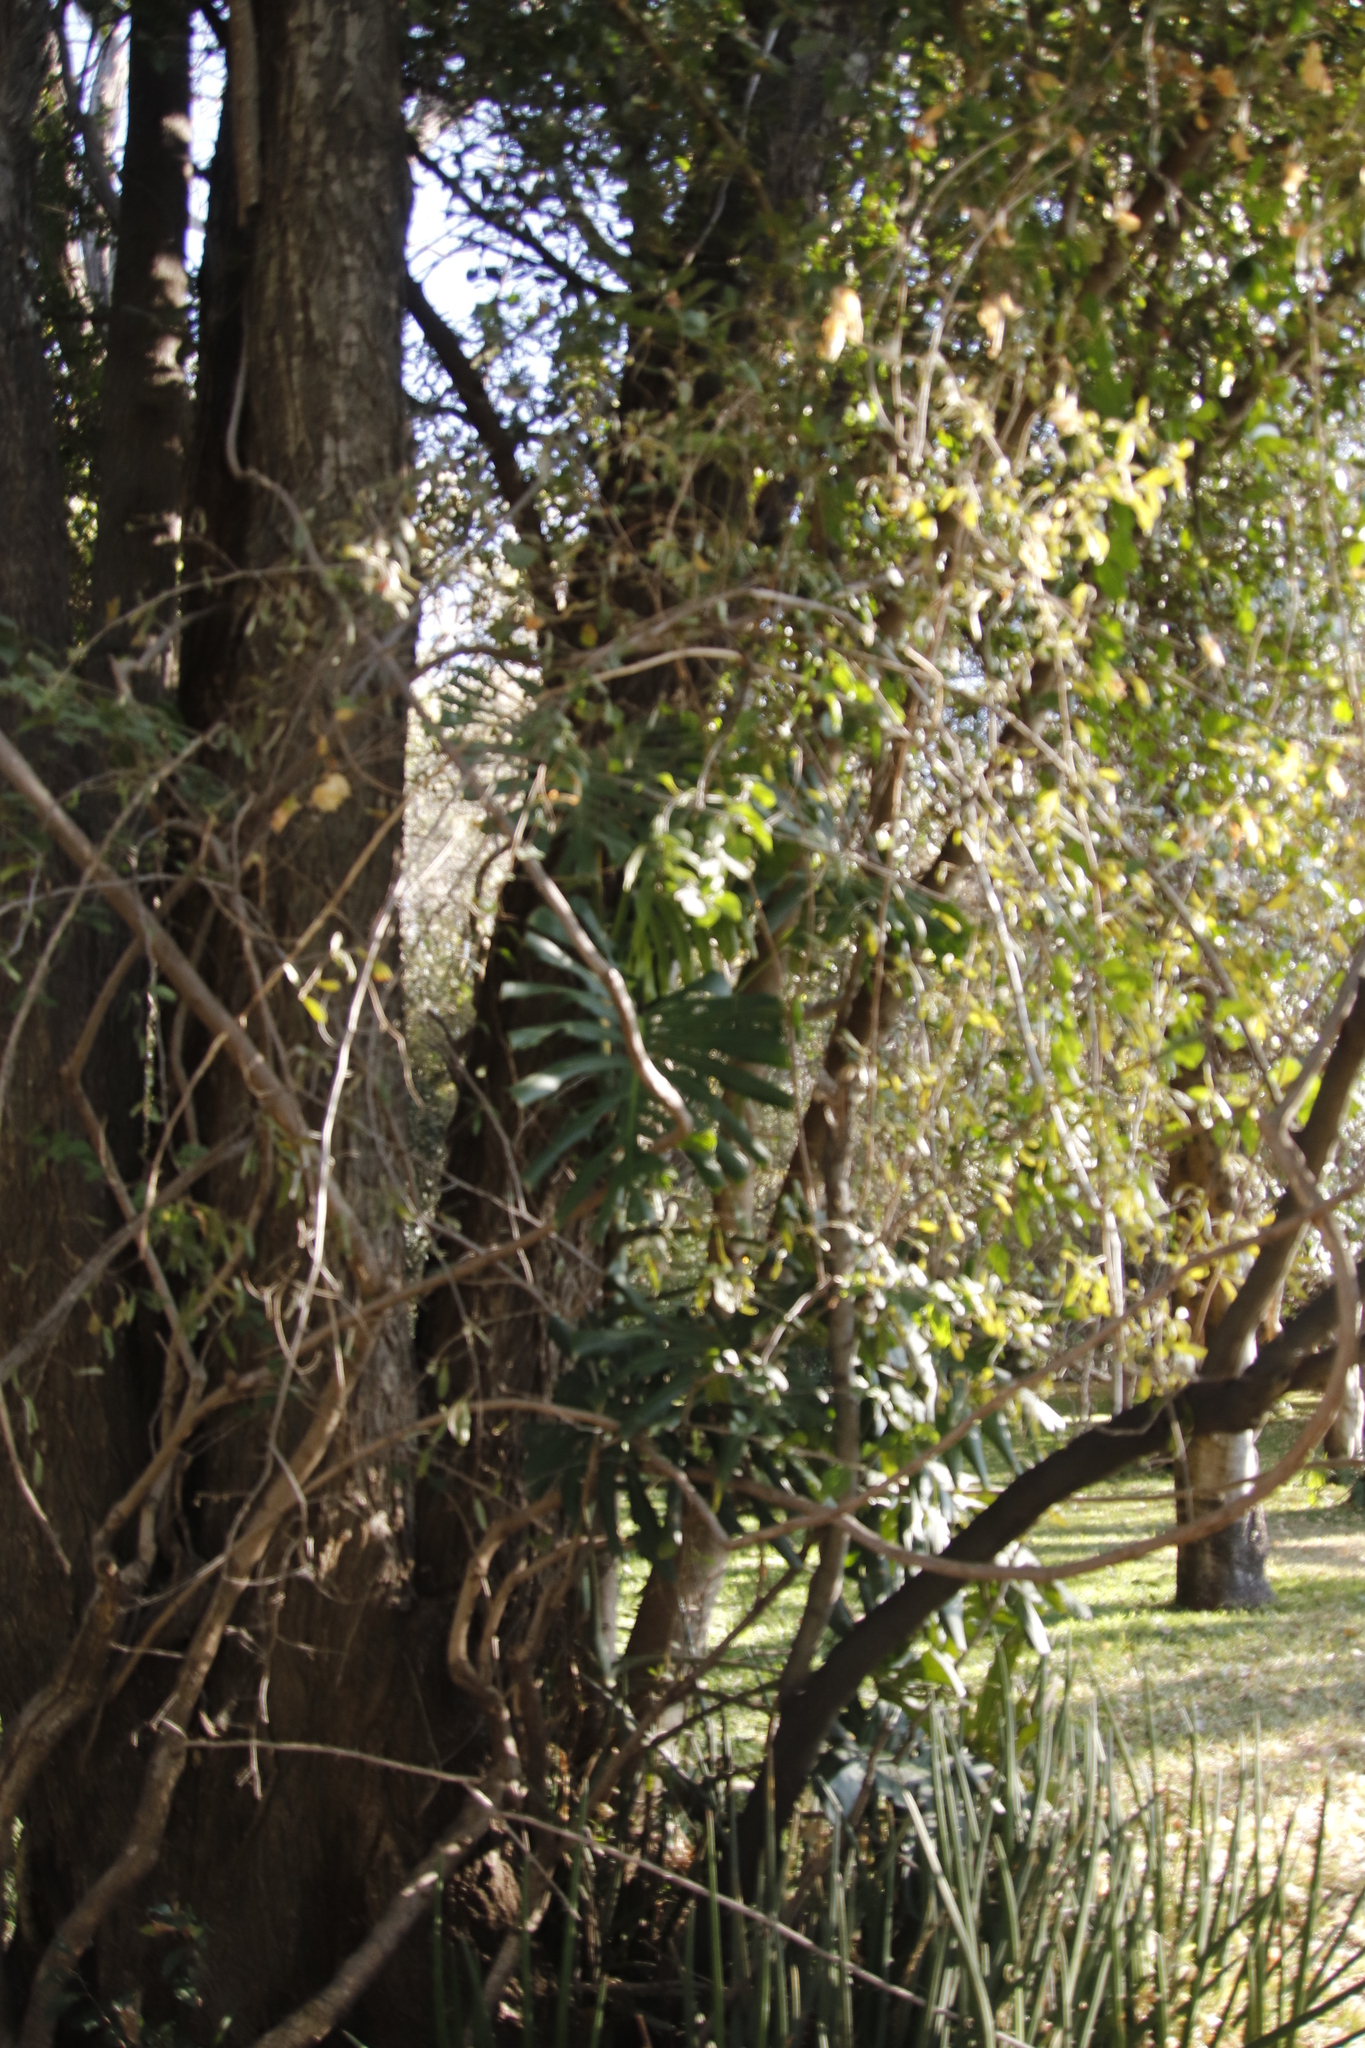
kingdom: Plantae
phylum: Tracheophyta
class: Liliopsida
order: Alismatales
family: Araceae
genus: Monstera
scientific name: Monstera deliciosa
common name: Cut-leaf-philodendron
